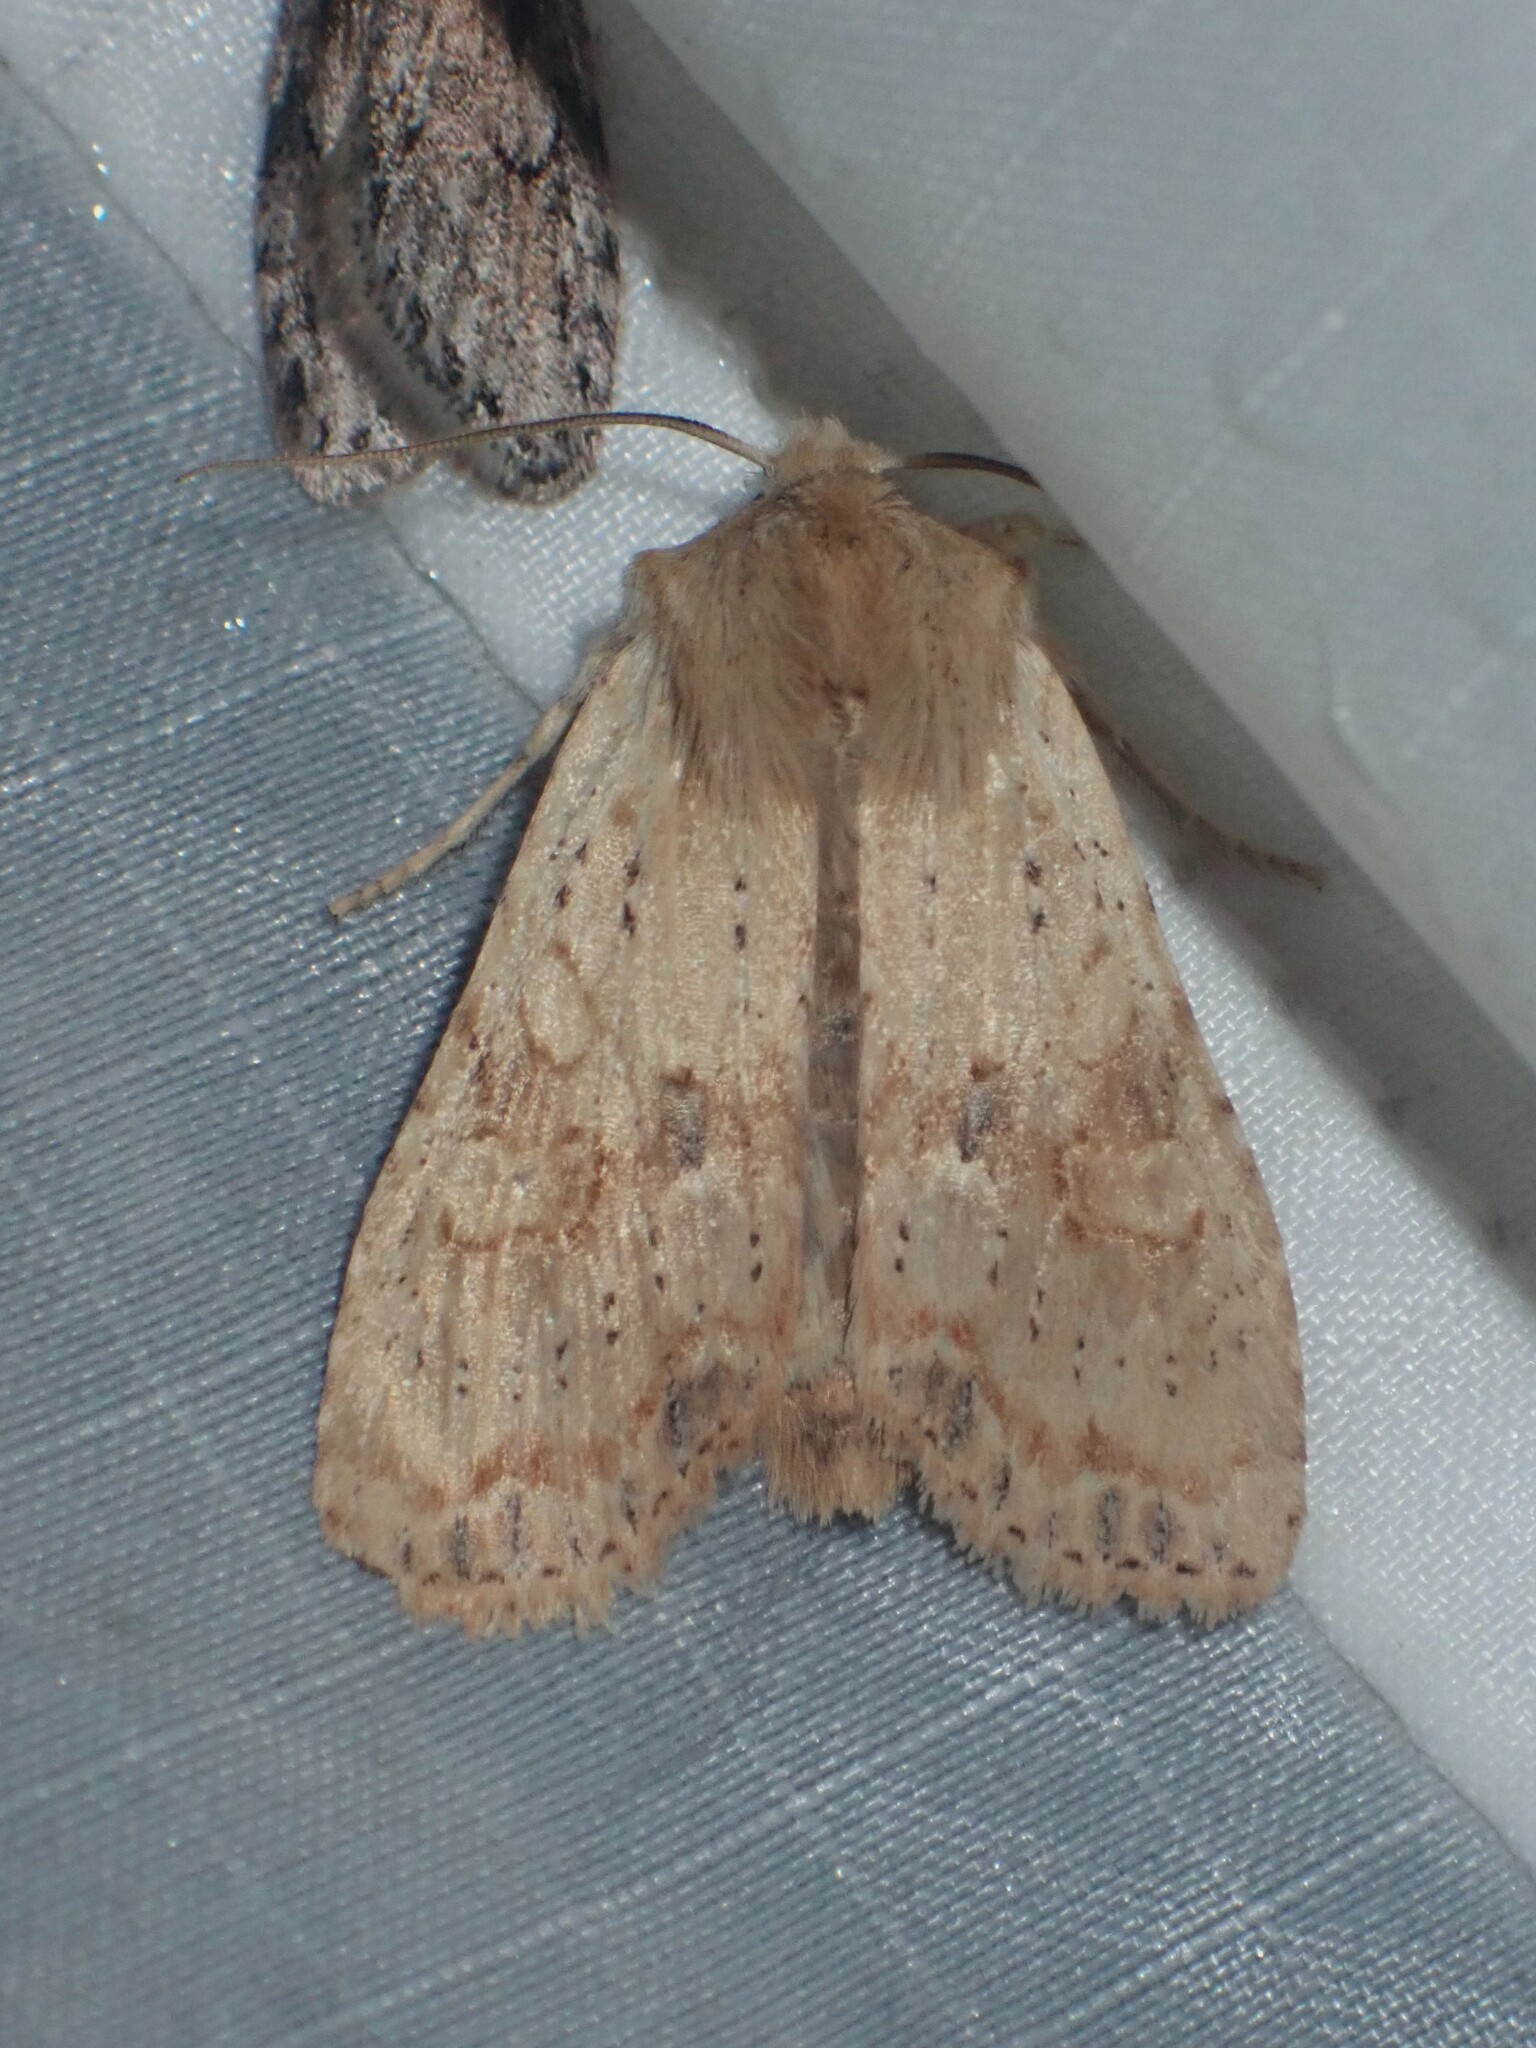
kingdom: Animalia
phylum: Arthropoda
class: Insecta
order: Lepidoptera
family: Noctuidae
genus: Lithophane
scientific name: Lithophane innominata
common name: Nameless pinion moth
